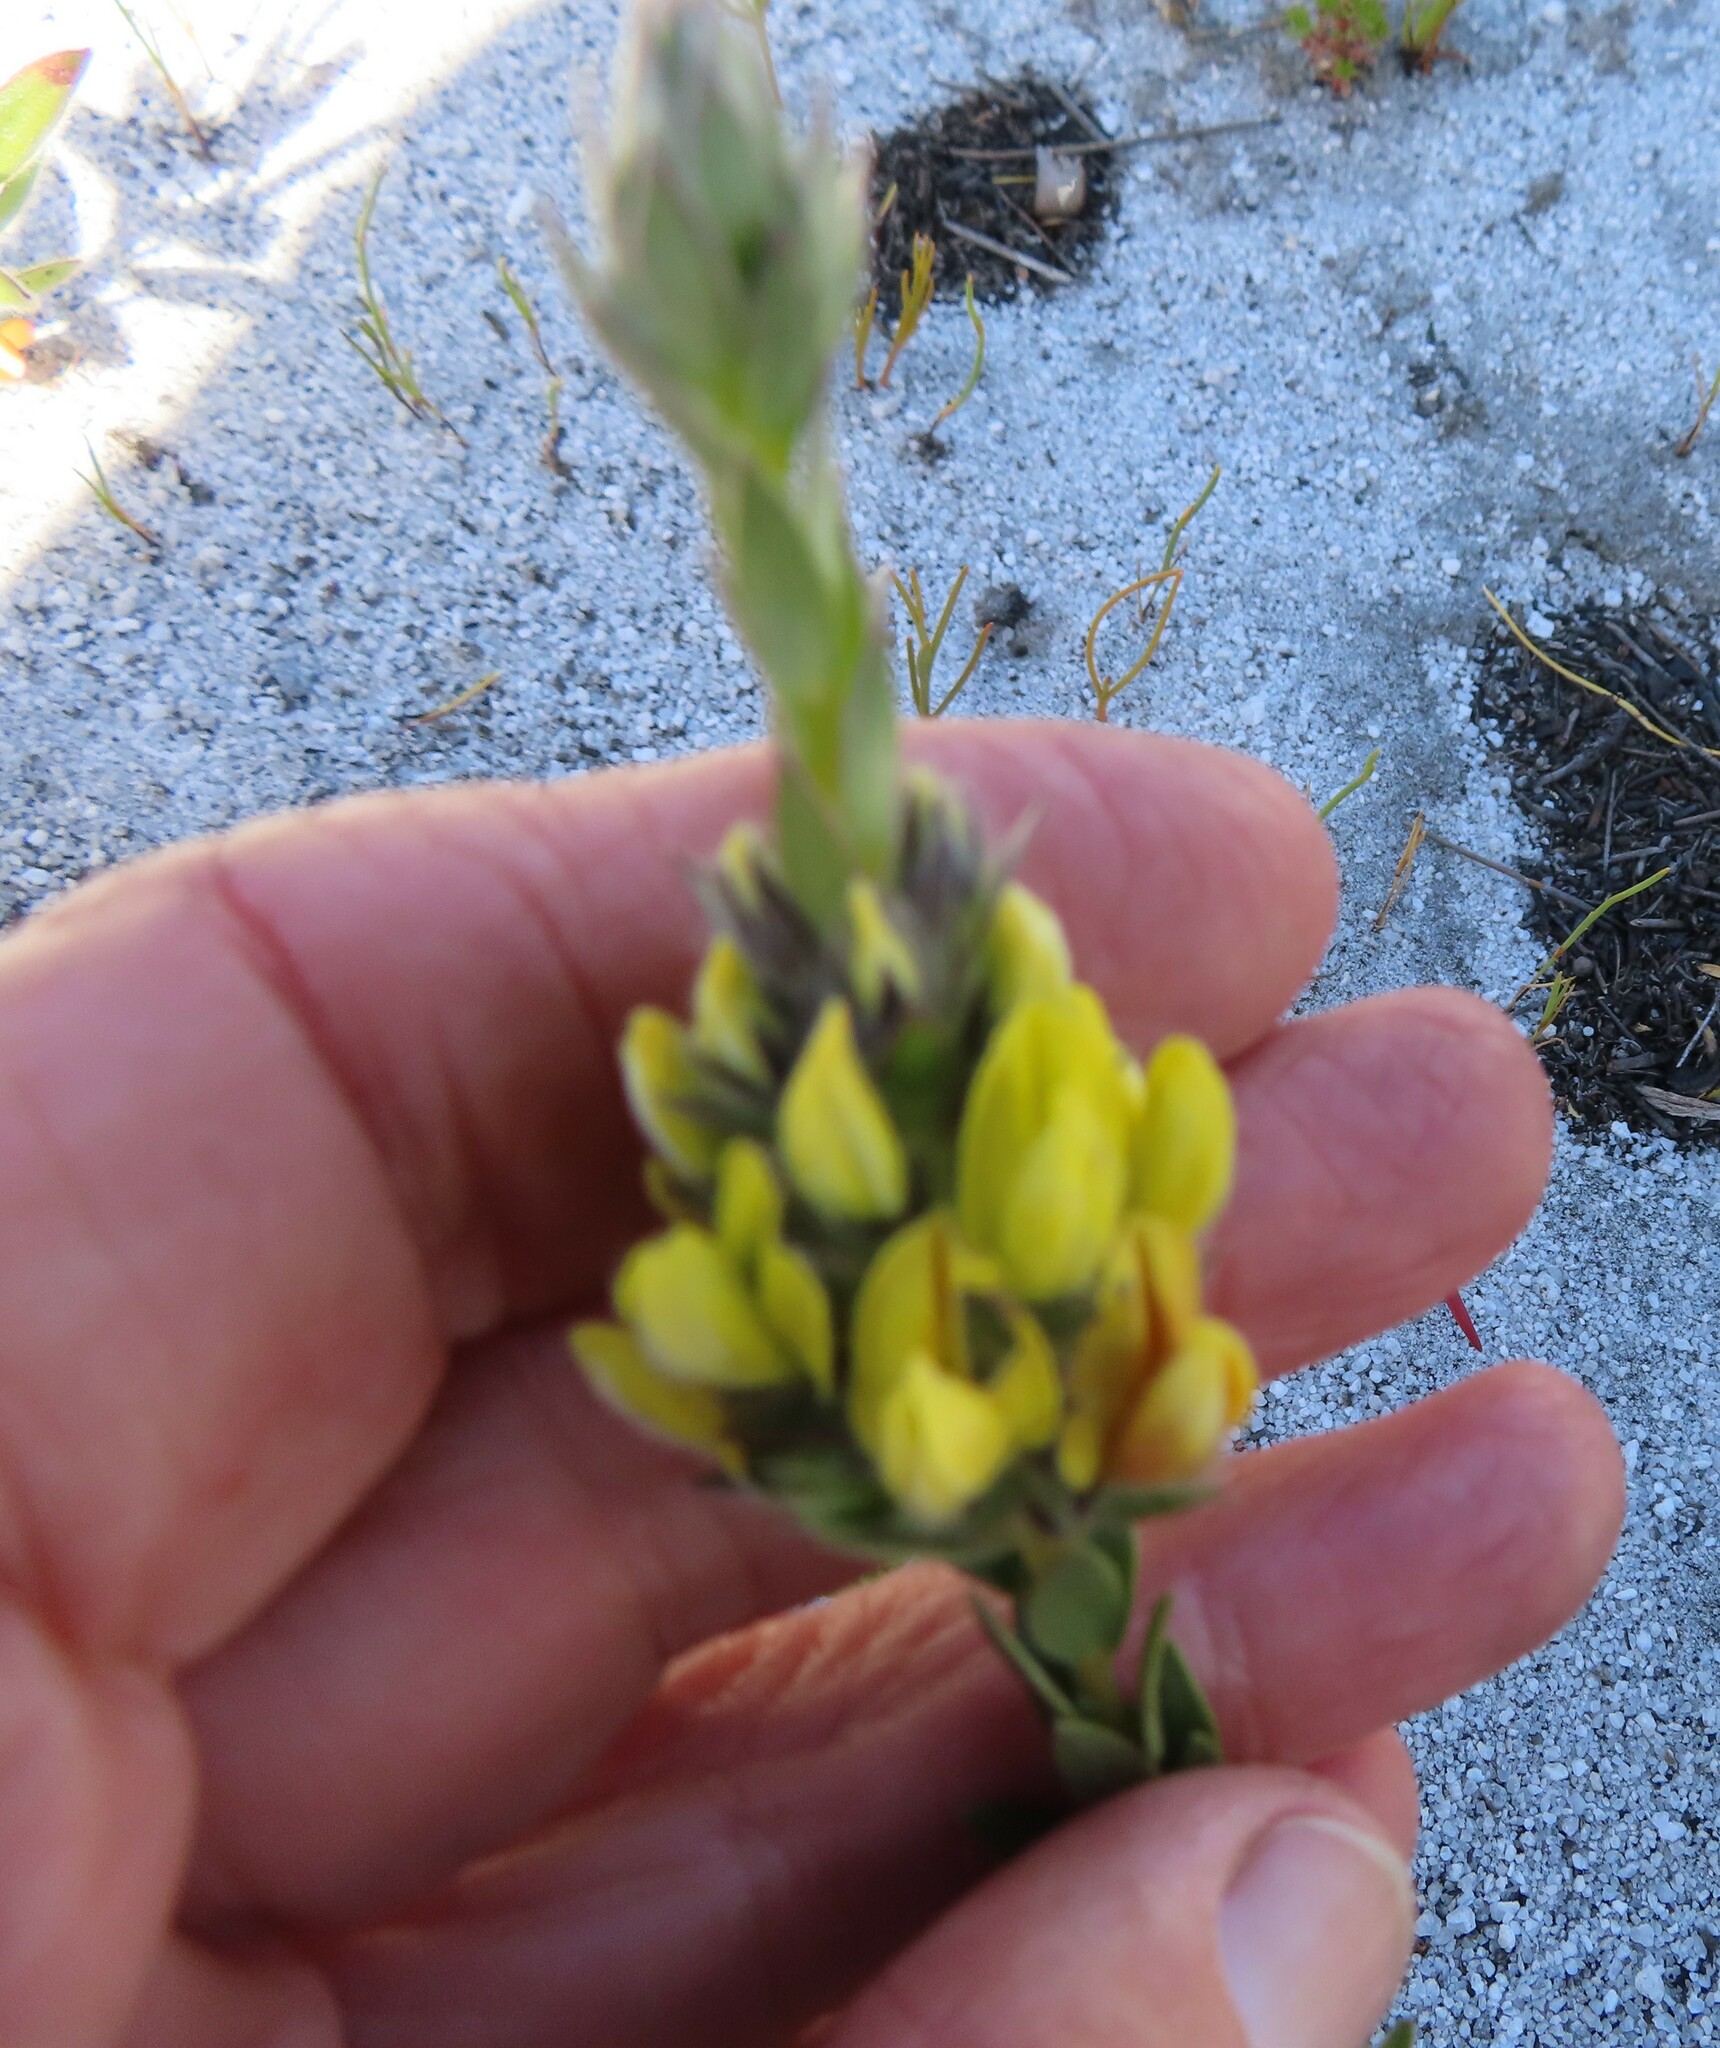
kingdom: Plantae
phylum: Tracheophyta
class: Magnoliopsida
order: Fabales
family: Fabaceae
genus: Aspalathus
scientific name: Aspalathus sericea
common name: Silky pea
